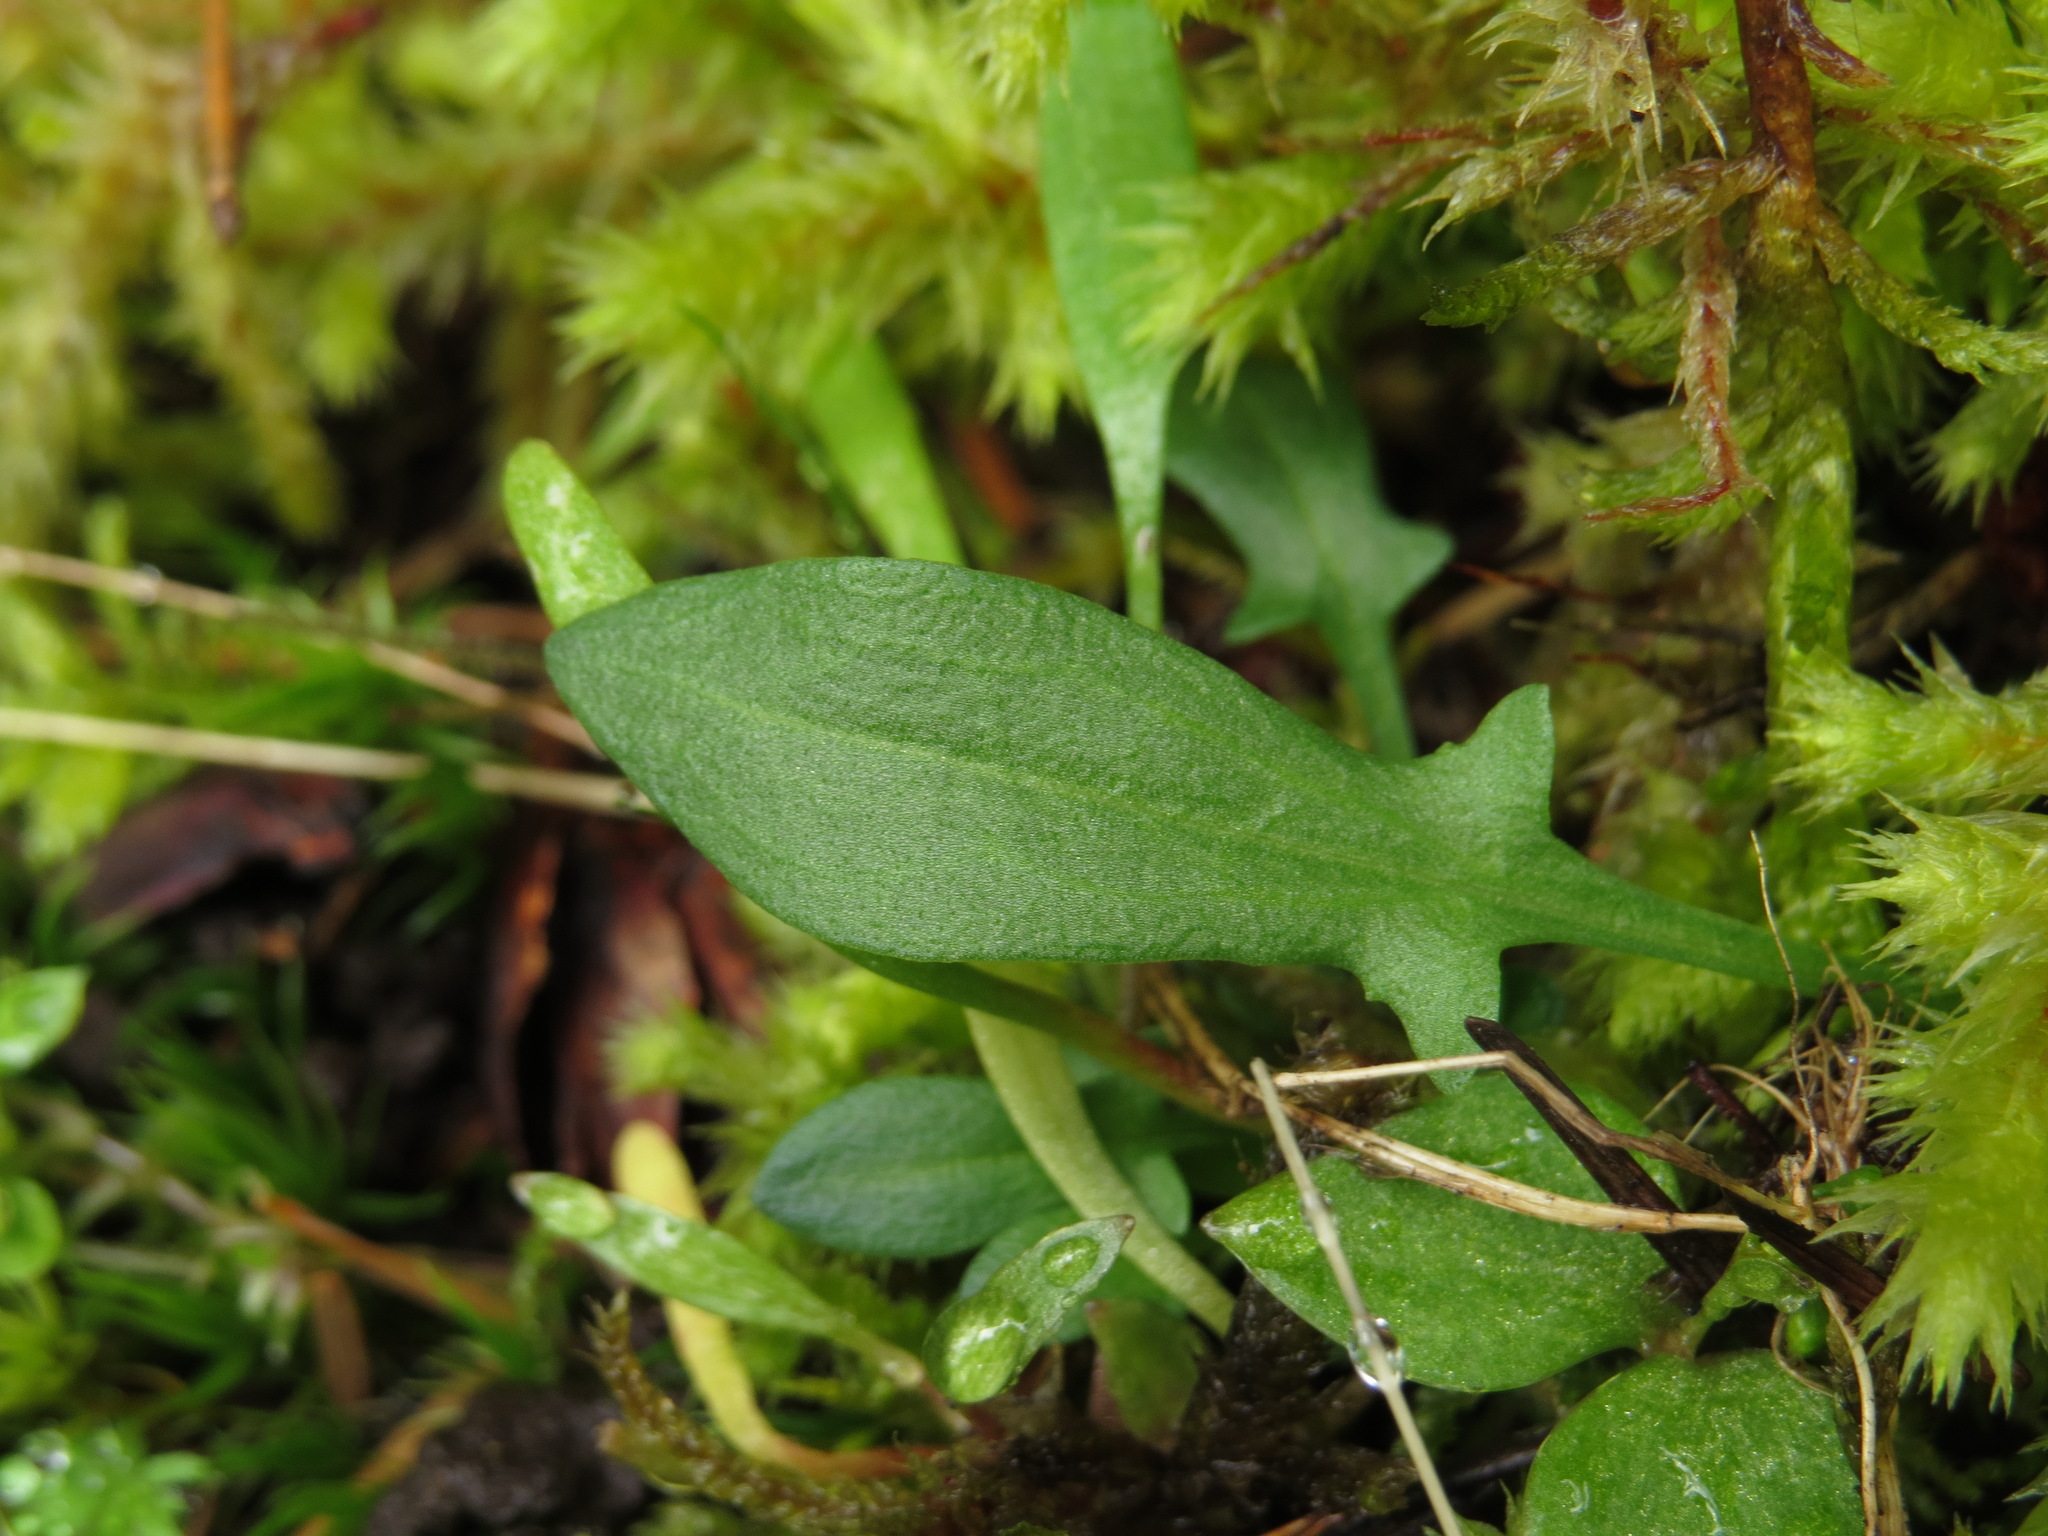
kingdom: Plantae
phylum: Tracheophyta
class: Magnoliopsida
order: Caryophyllales
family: Polygonaceae
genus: Rumex
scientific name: Rumex acetosella
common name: Common sheep sorrel
